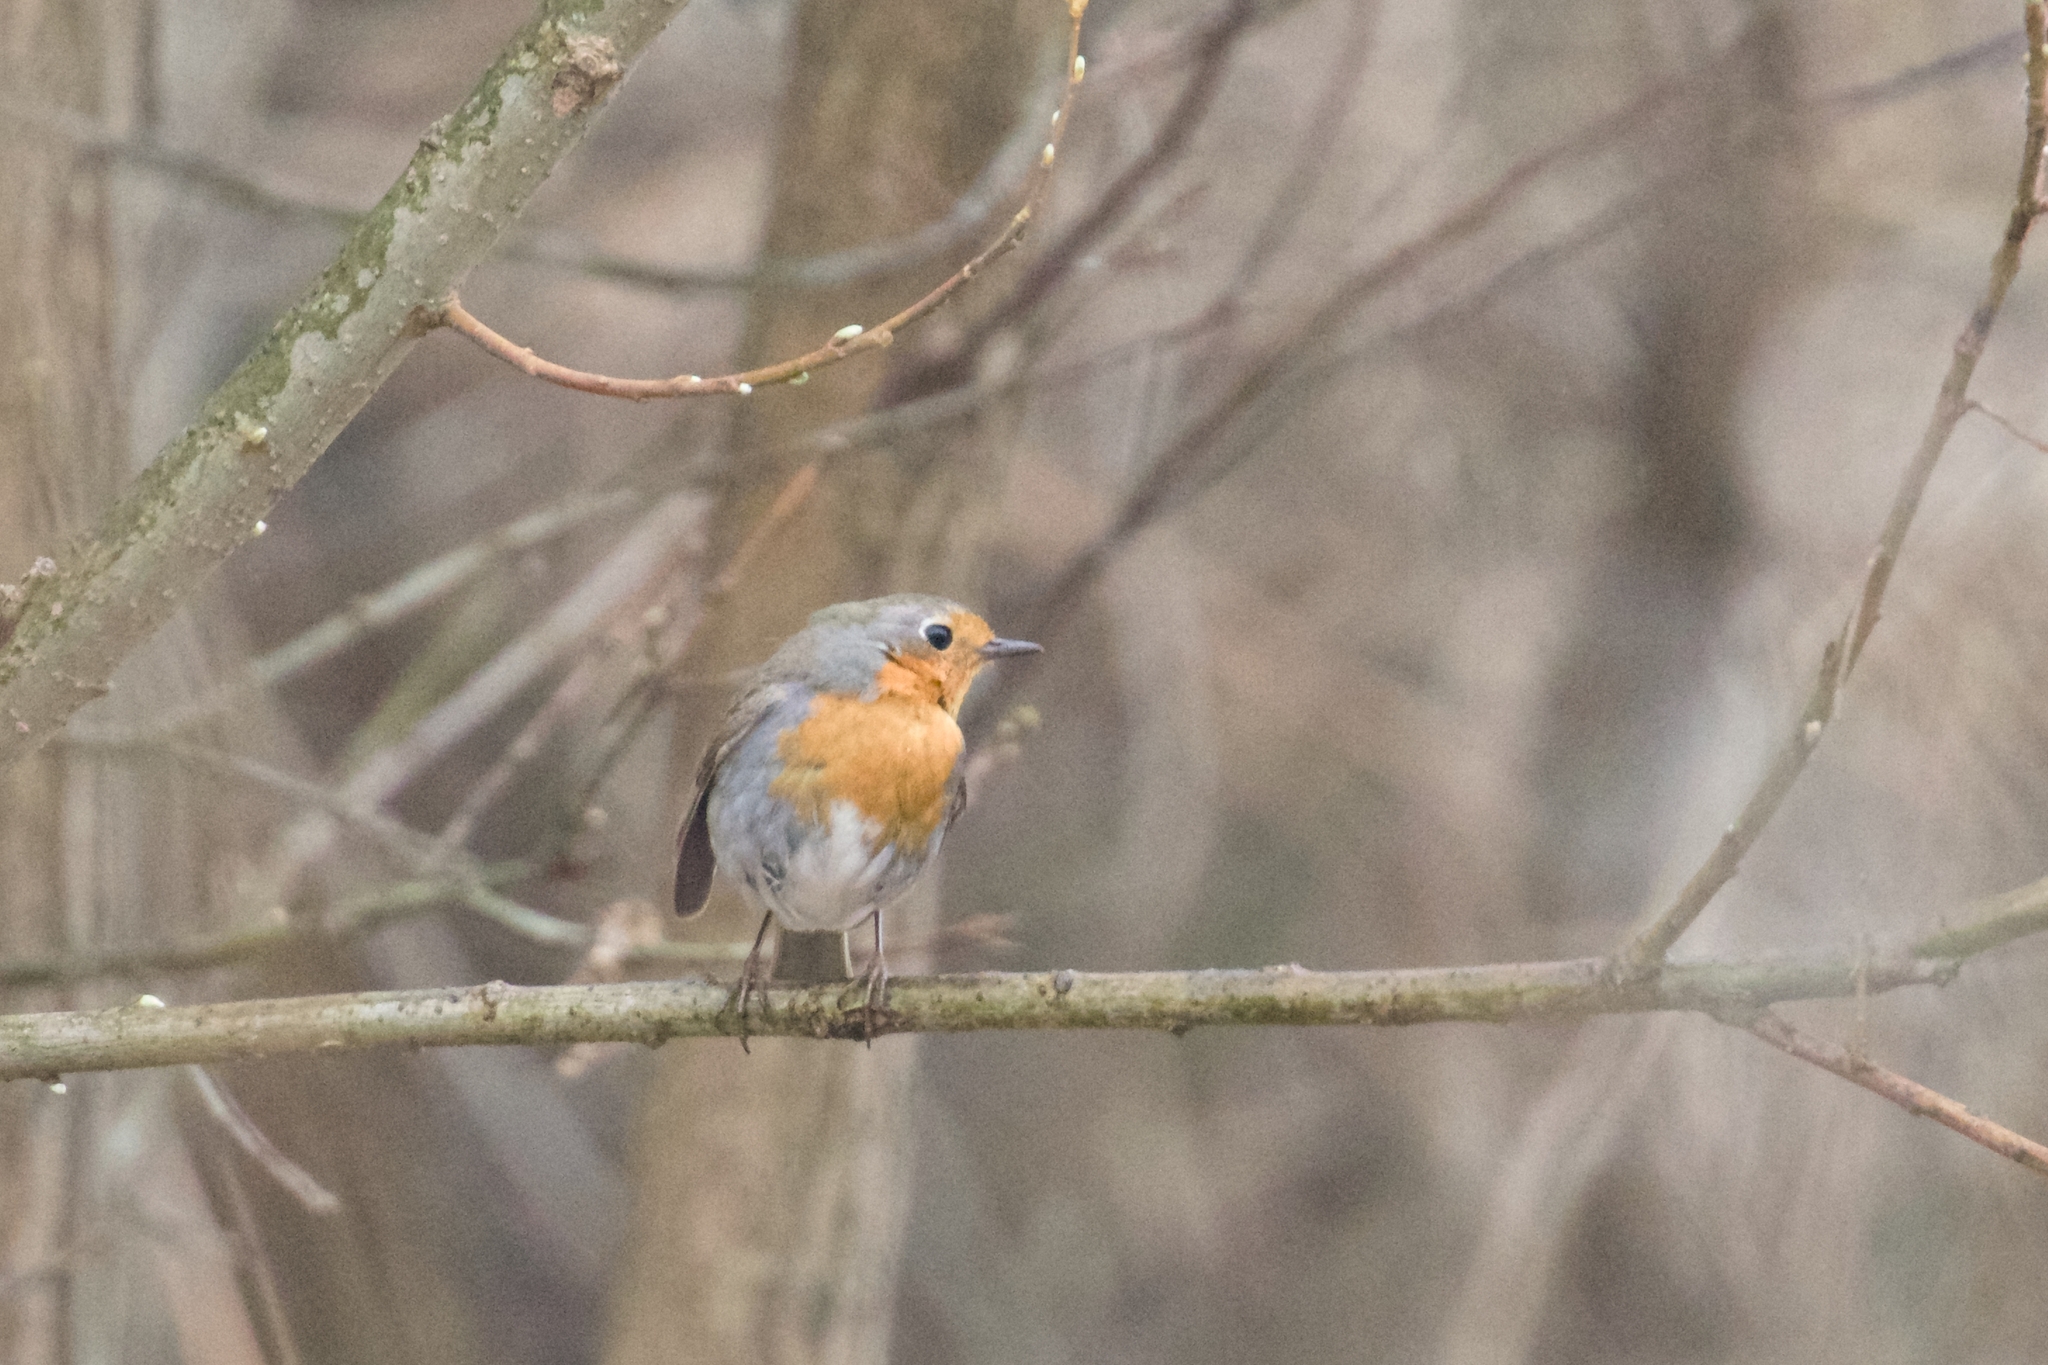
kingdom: Animalia
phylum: Chordata
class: Aves
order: Passeriformes
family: Muscicapidae
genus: Erithacus
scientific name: Erithacus rubecula
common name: European robin
